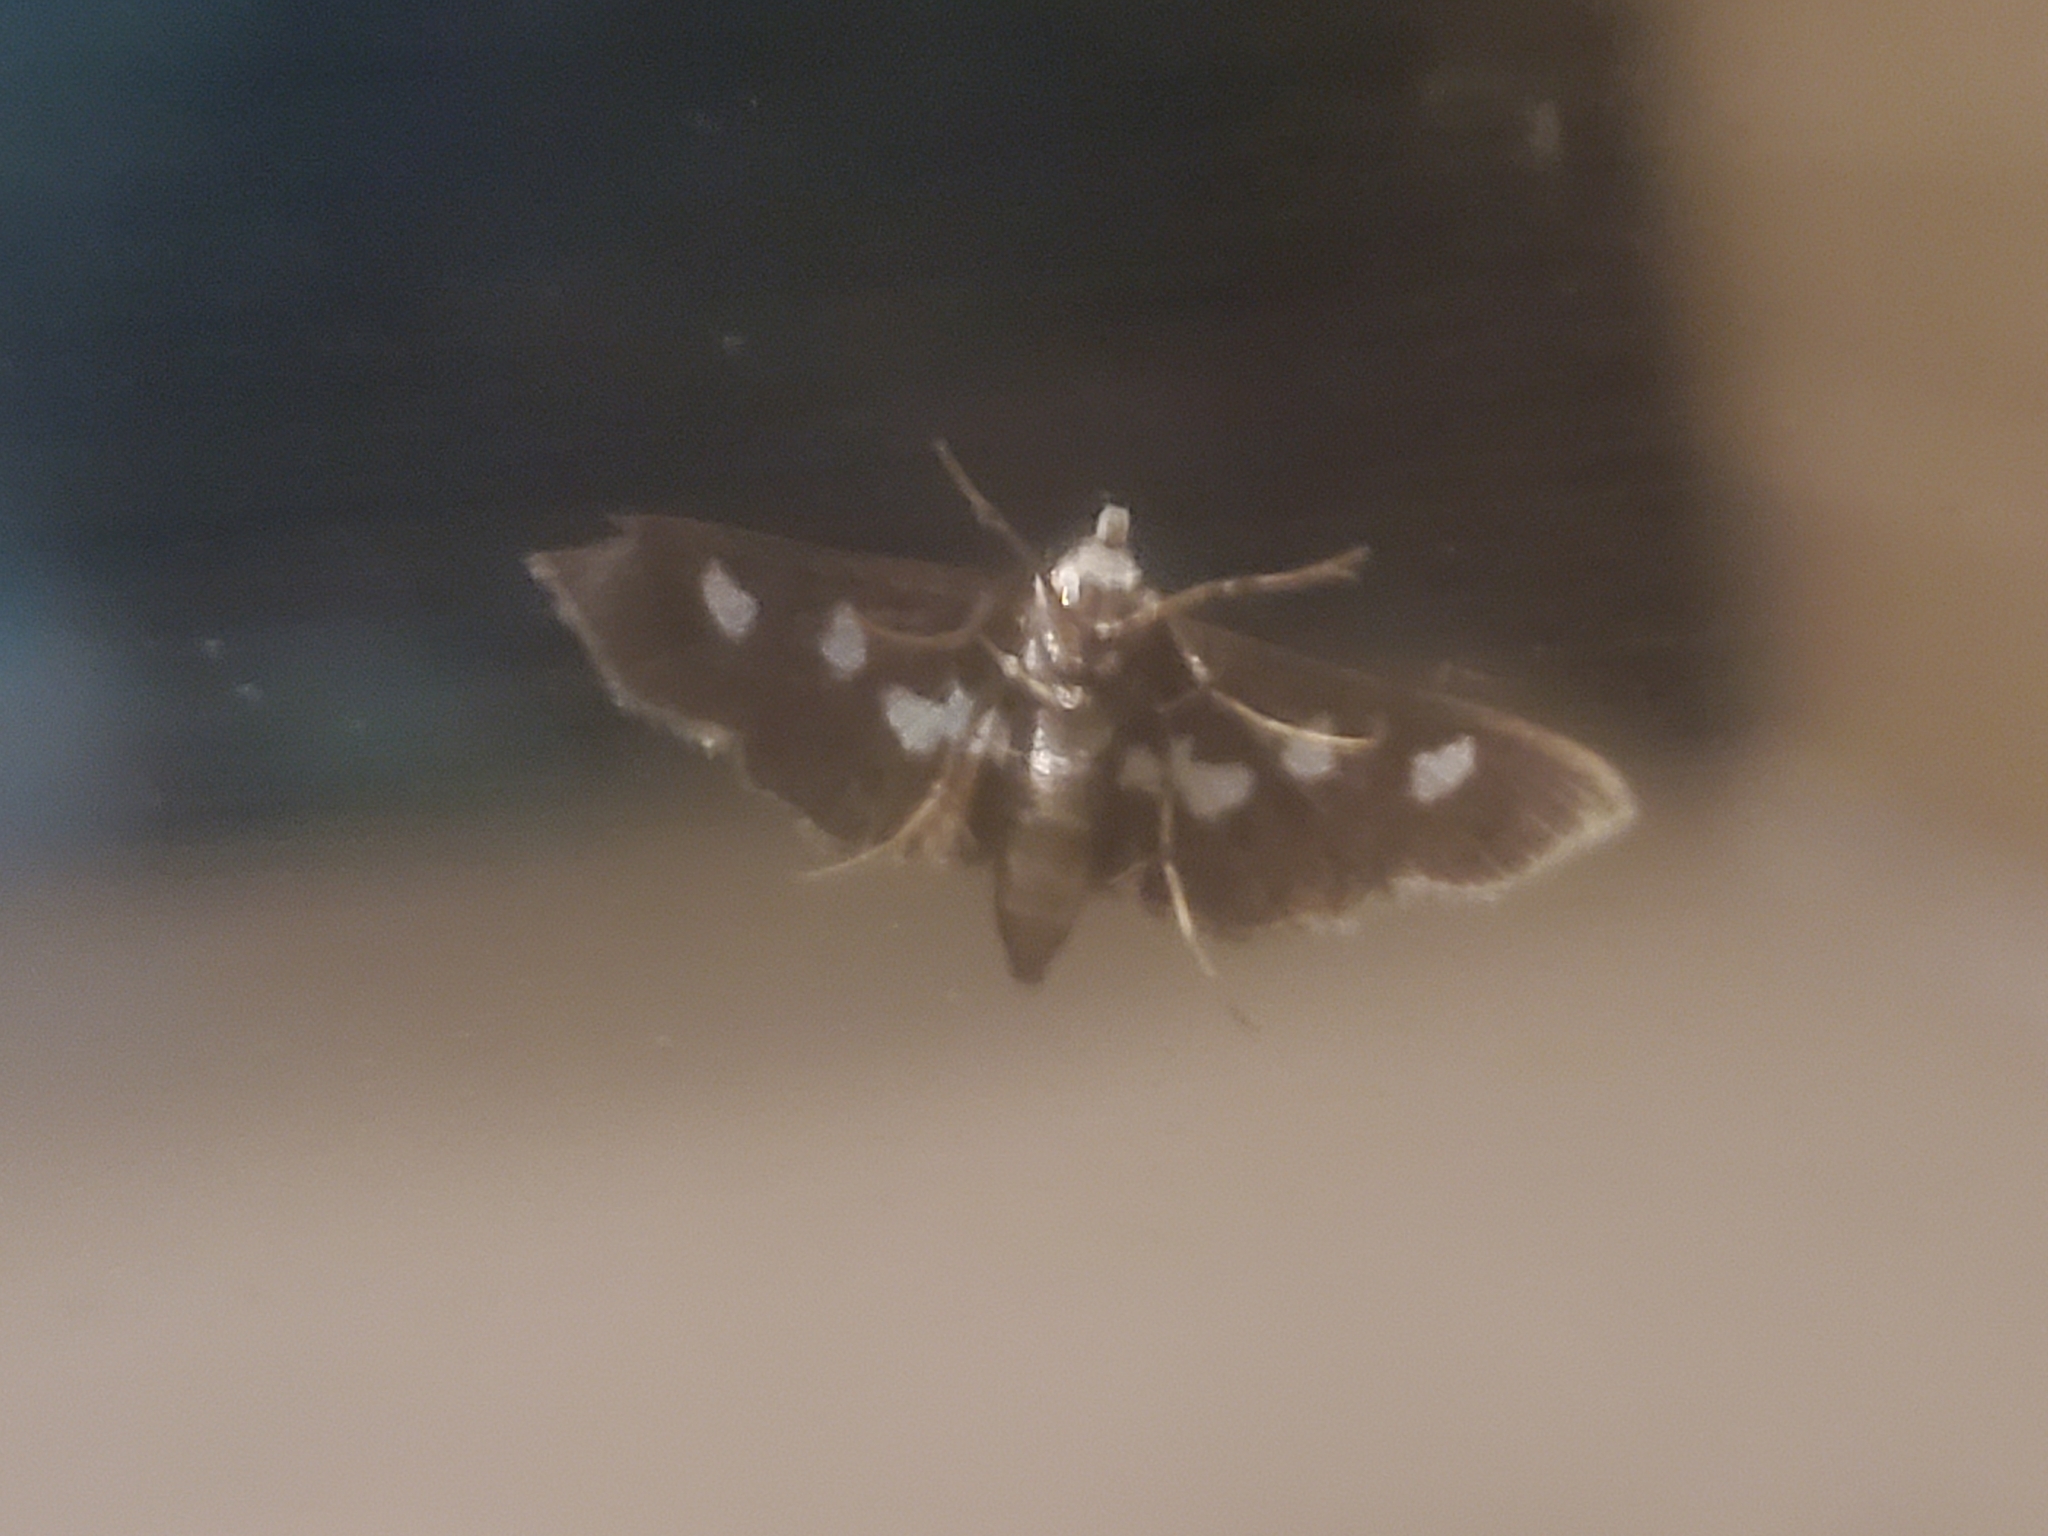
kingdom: Animalia
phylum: Arthropoda
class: Insecta
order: Lepidoptera
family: Crambidae
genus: Desmia
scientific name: Desmia funeralis
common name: Grape leaf folder moth
